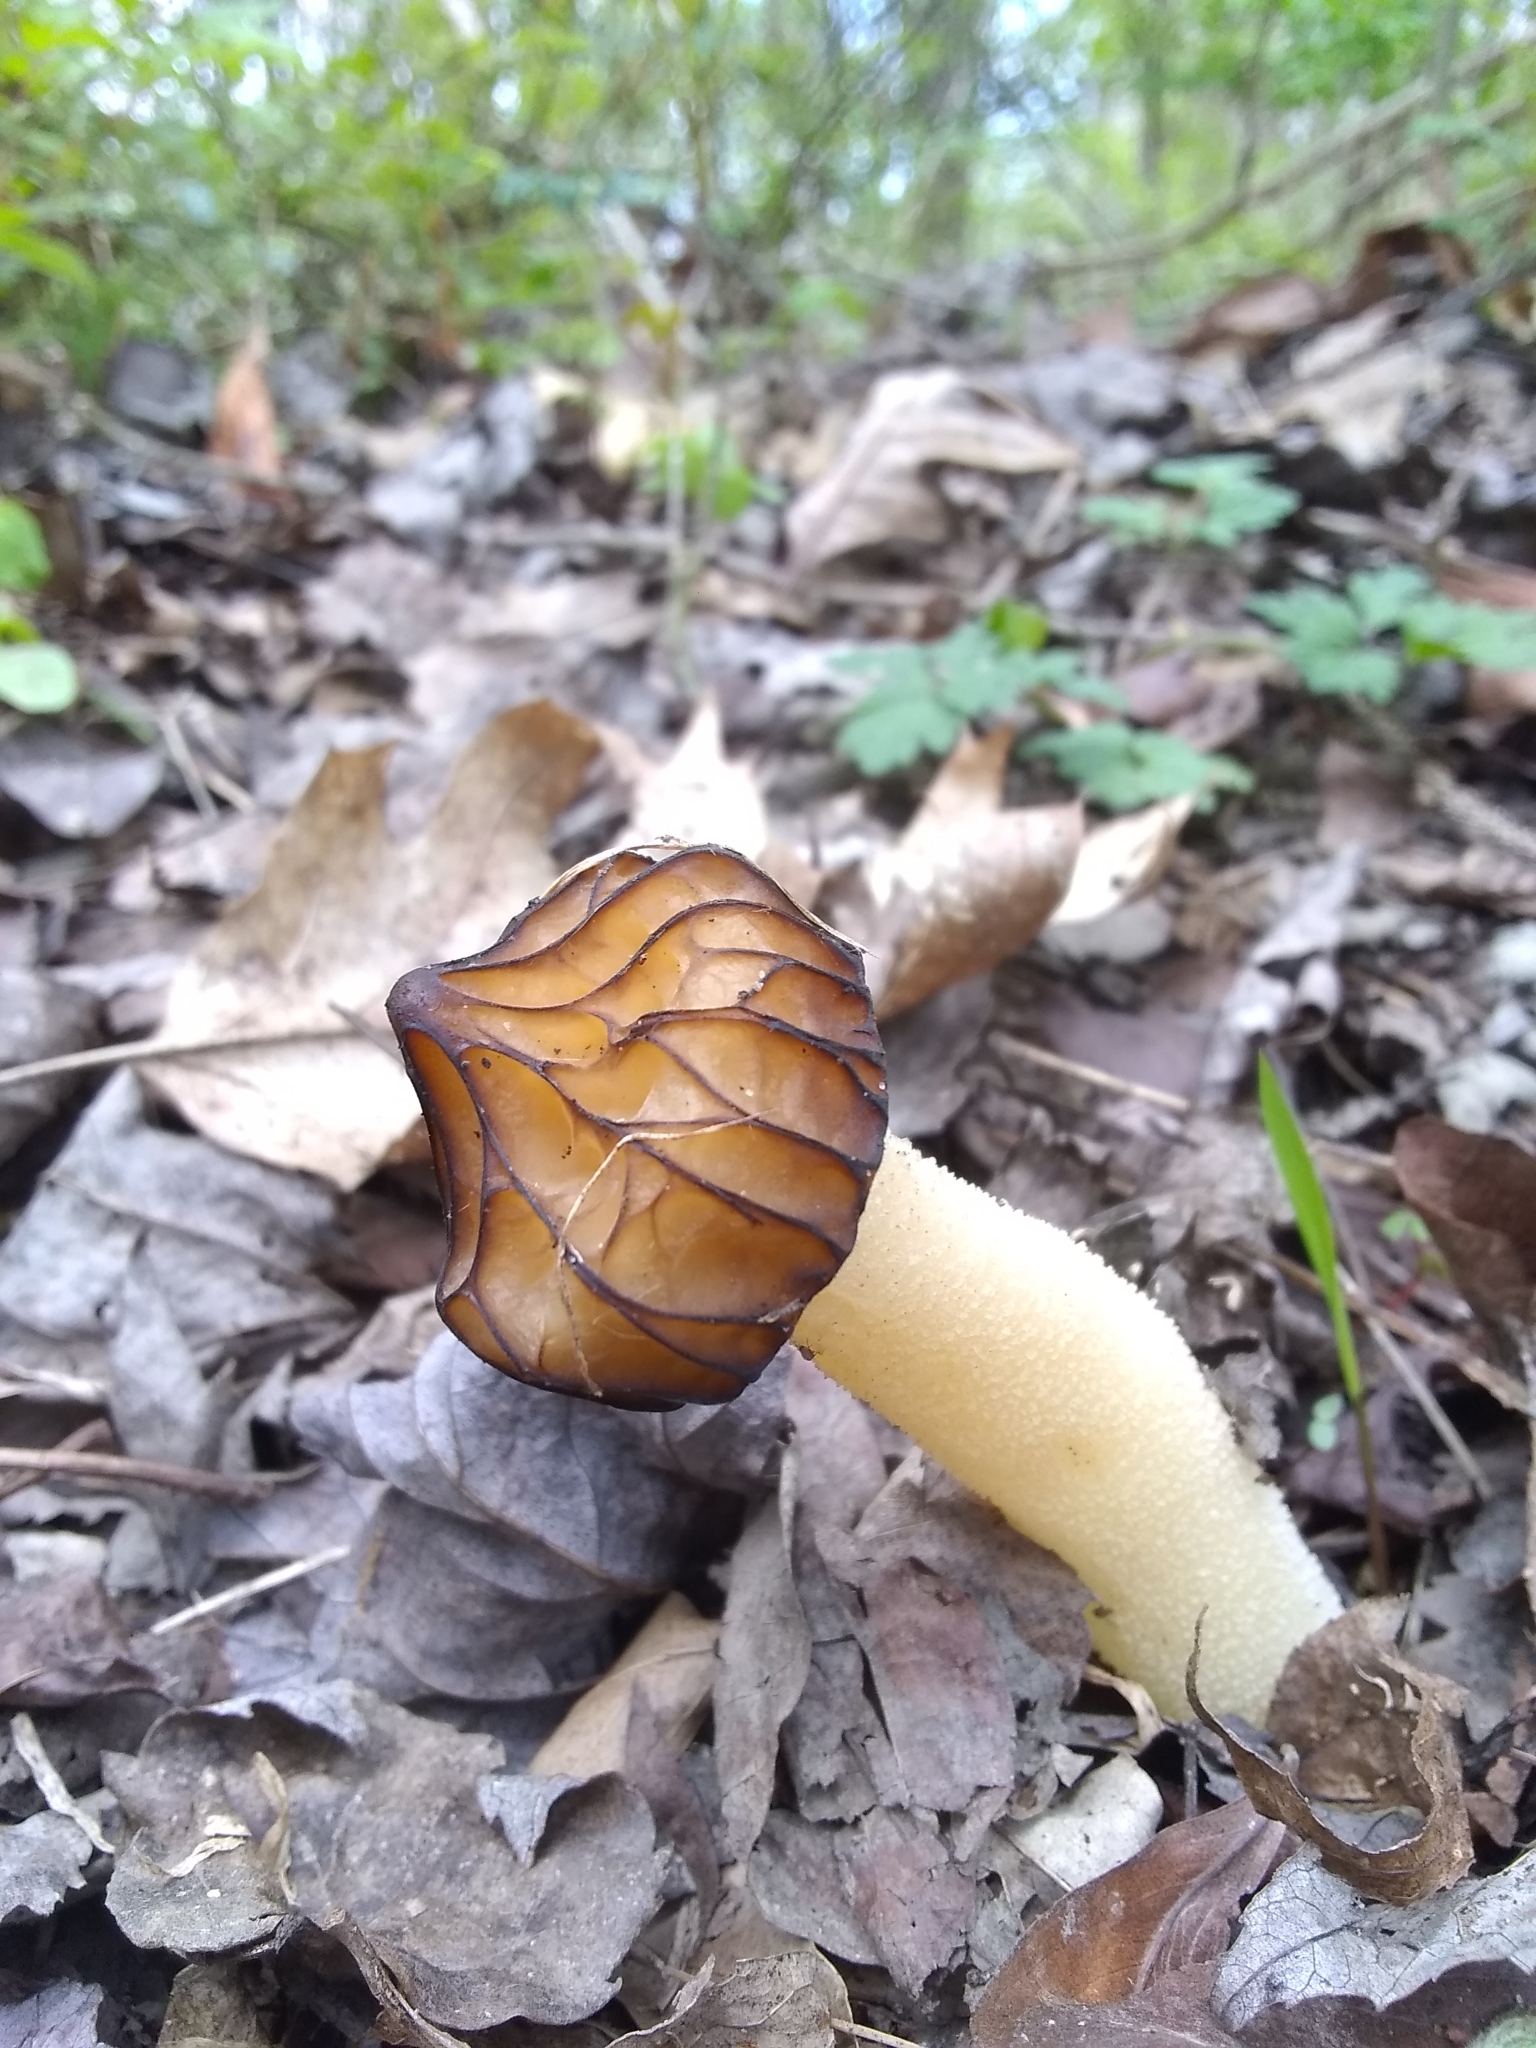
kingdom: Fungi
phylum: Ascomycota
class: Pezizomycetes
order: Pezizales
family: Morchellaceae
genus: Morchella
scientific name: Morchella punctipes
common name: Half-free morel
